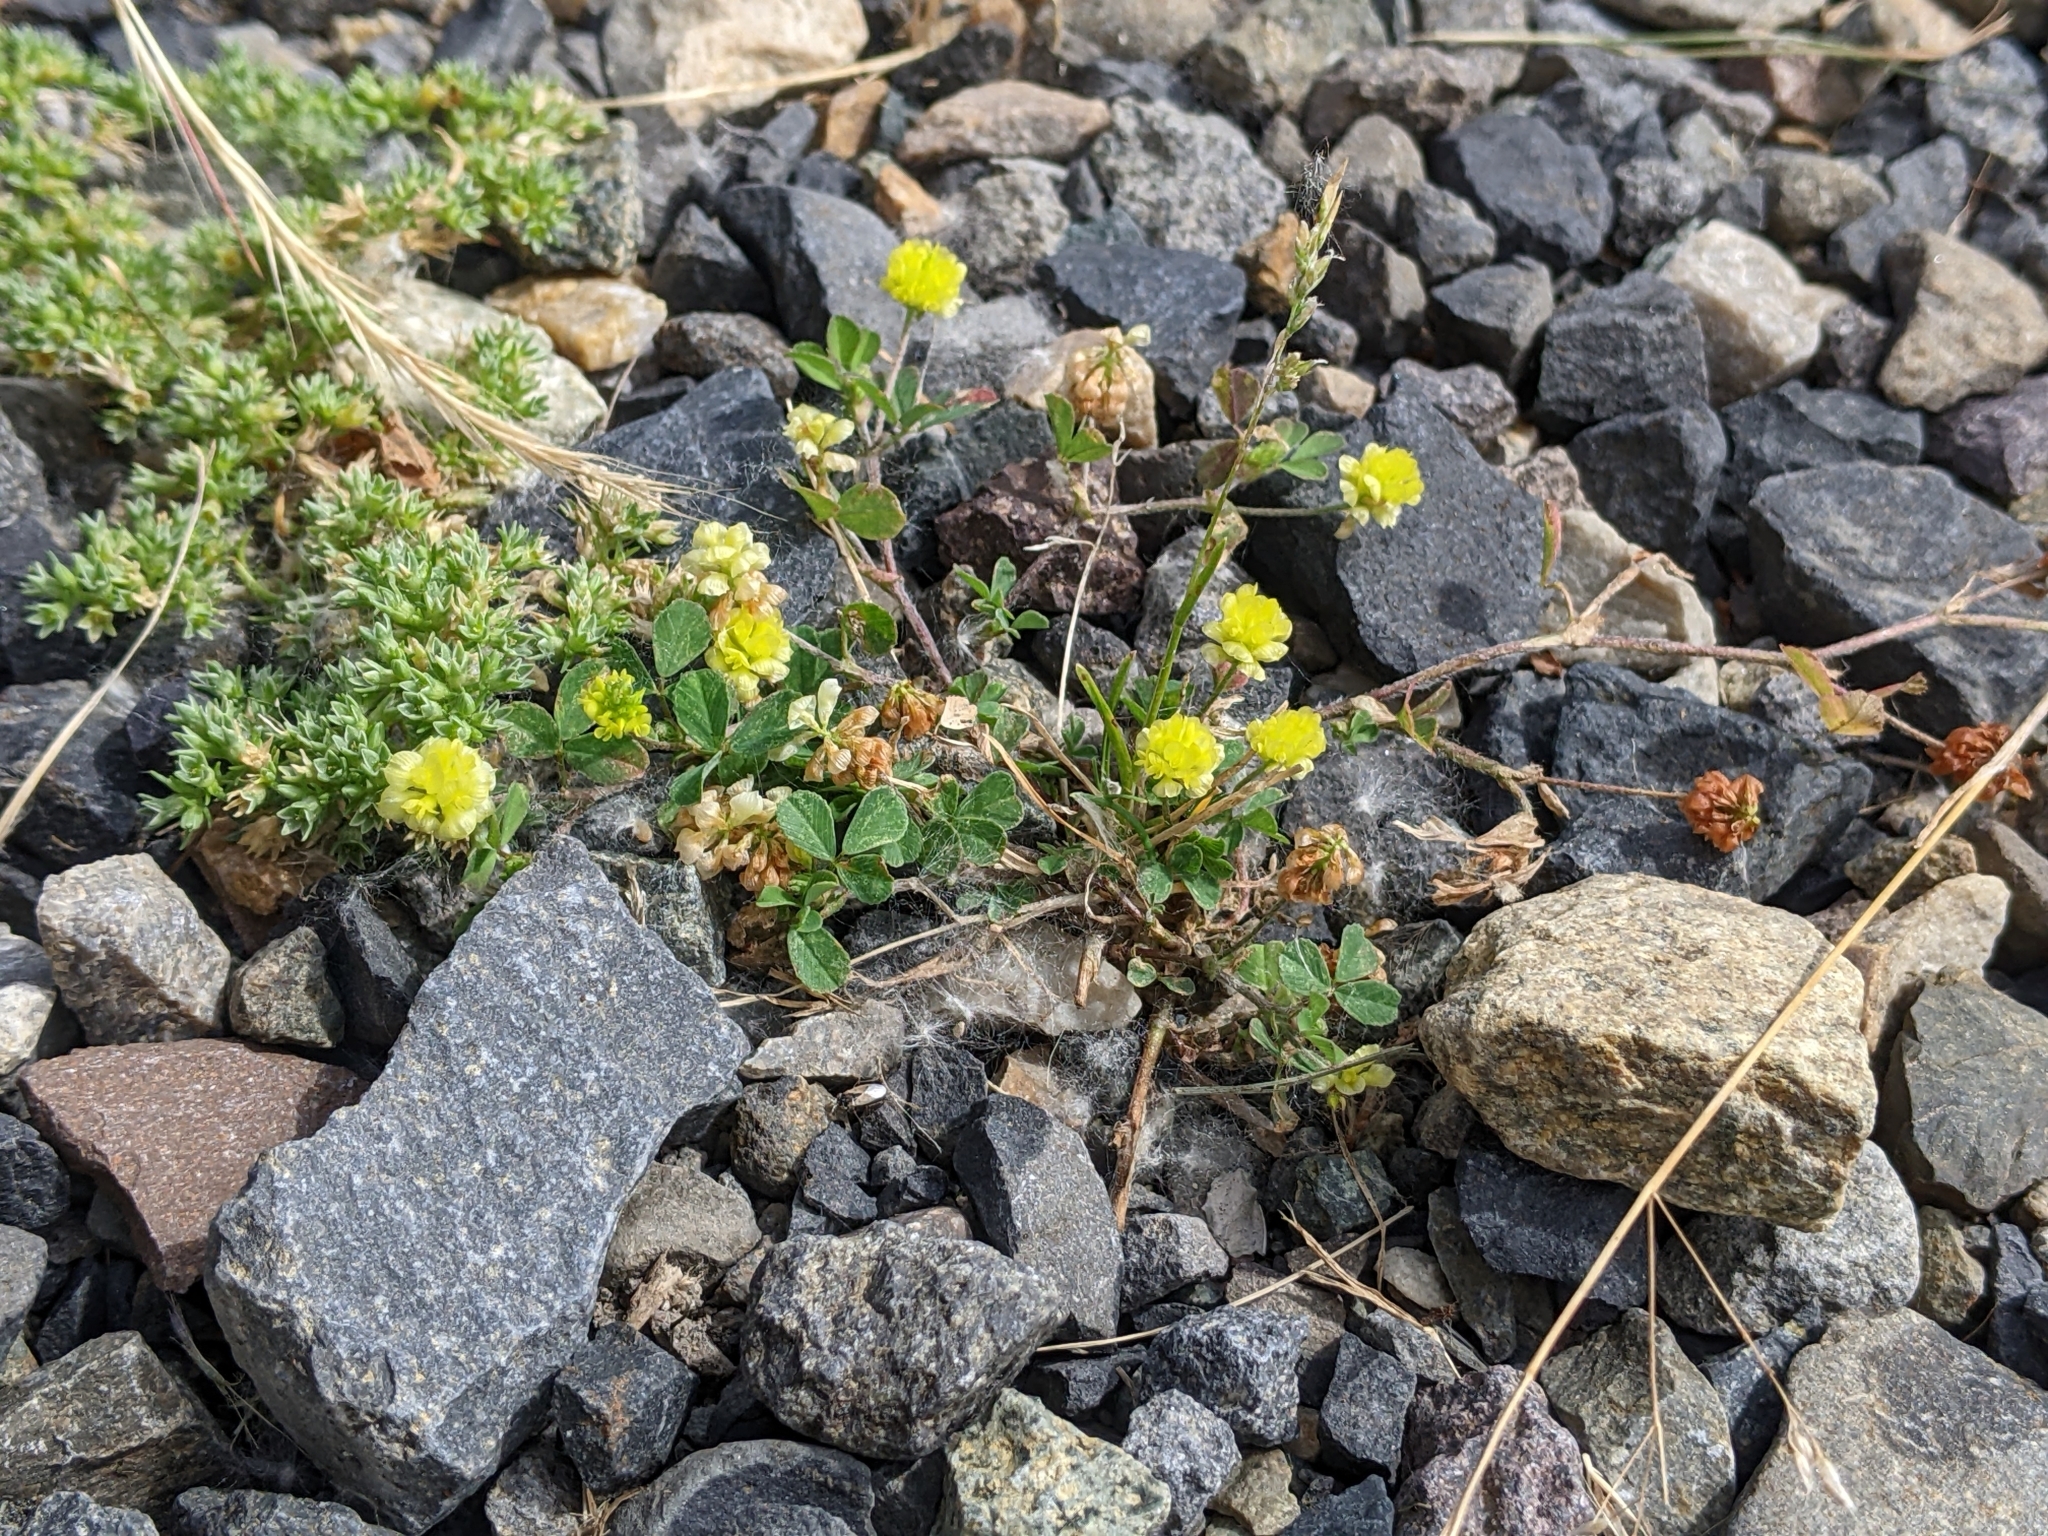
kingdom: Plantae
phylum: Tracheophyta
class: Magnoliopsida
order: Fabales
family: Fabaceae
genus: Trifolium
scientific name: Trifolium campestre
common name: Field clover
